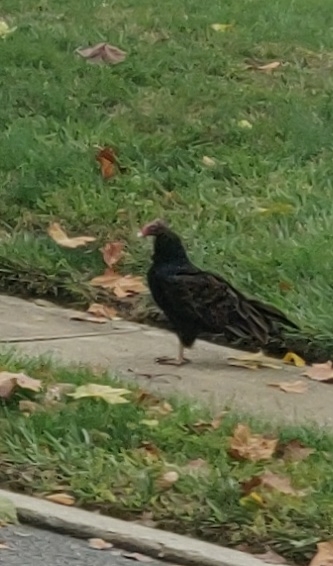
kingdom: Animalia
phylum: Chordata
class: Aves
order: Accipitriformes
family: Cathartidae
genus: Cathartes
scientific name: Cathartes aura
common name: Turkey vulture
